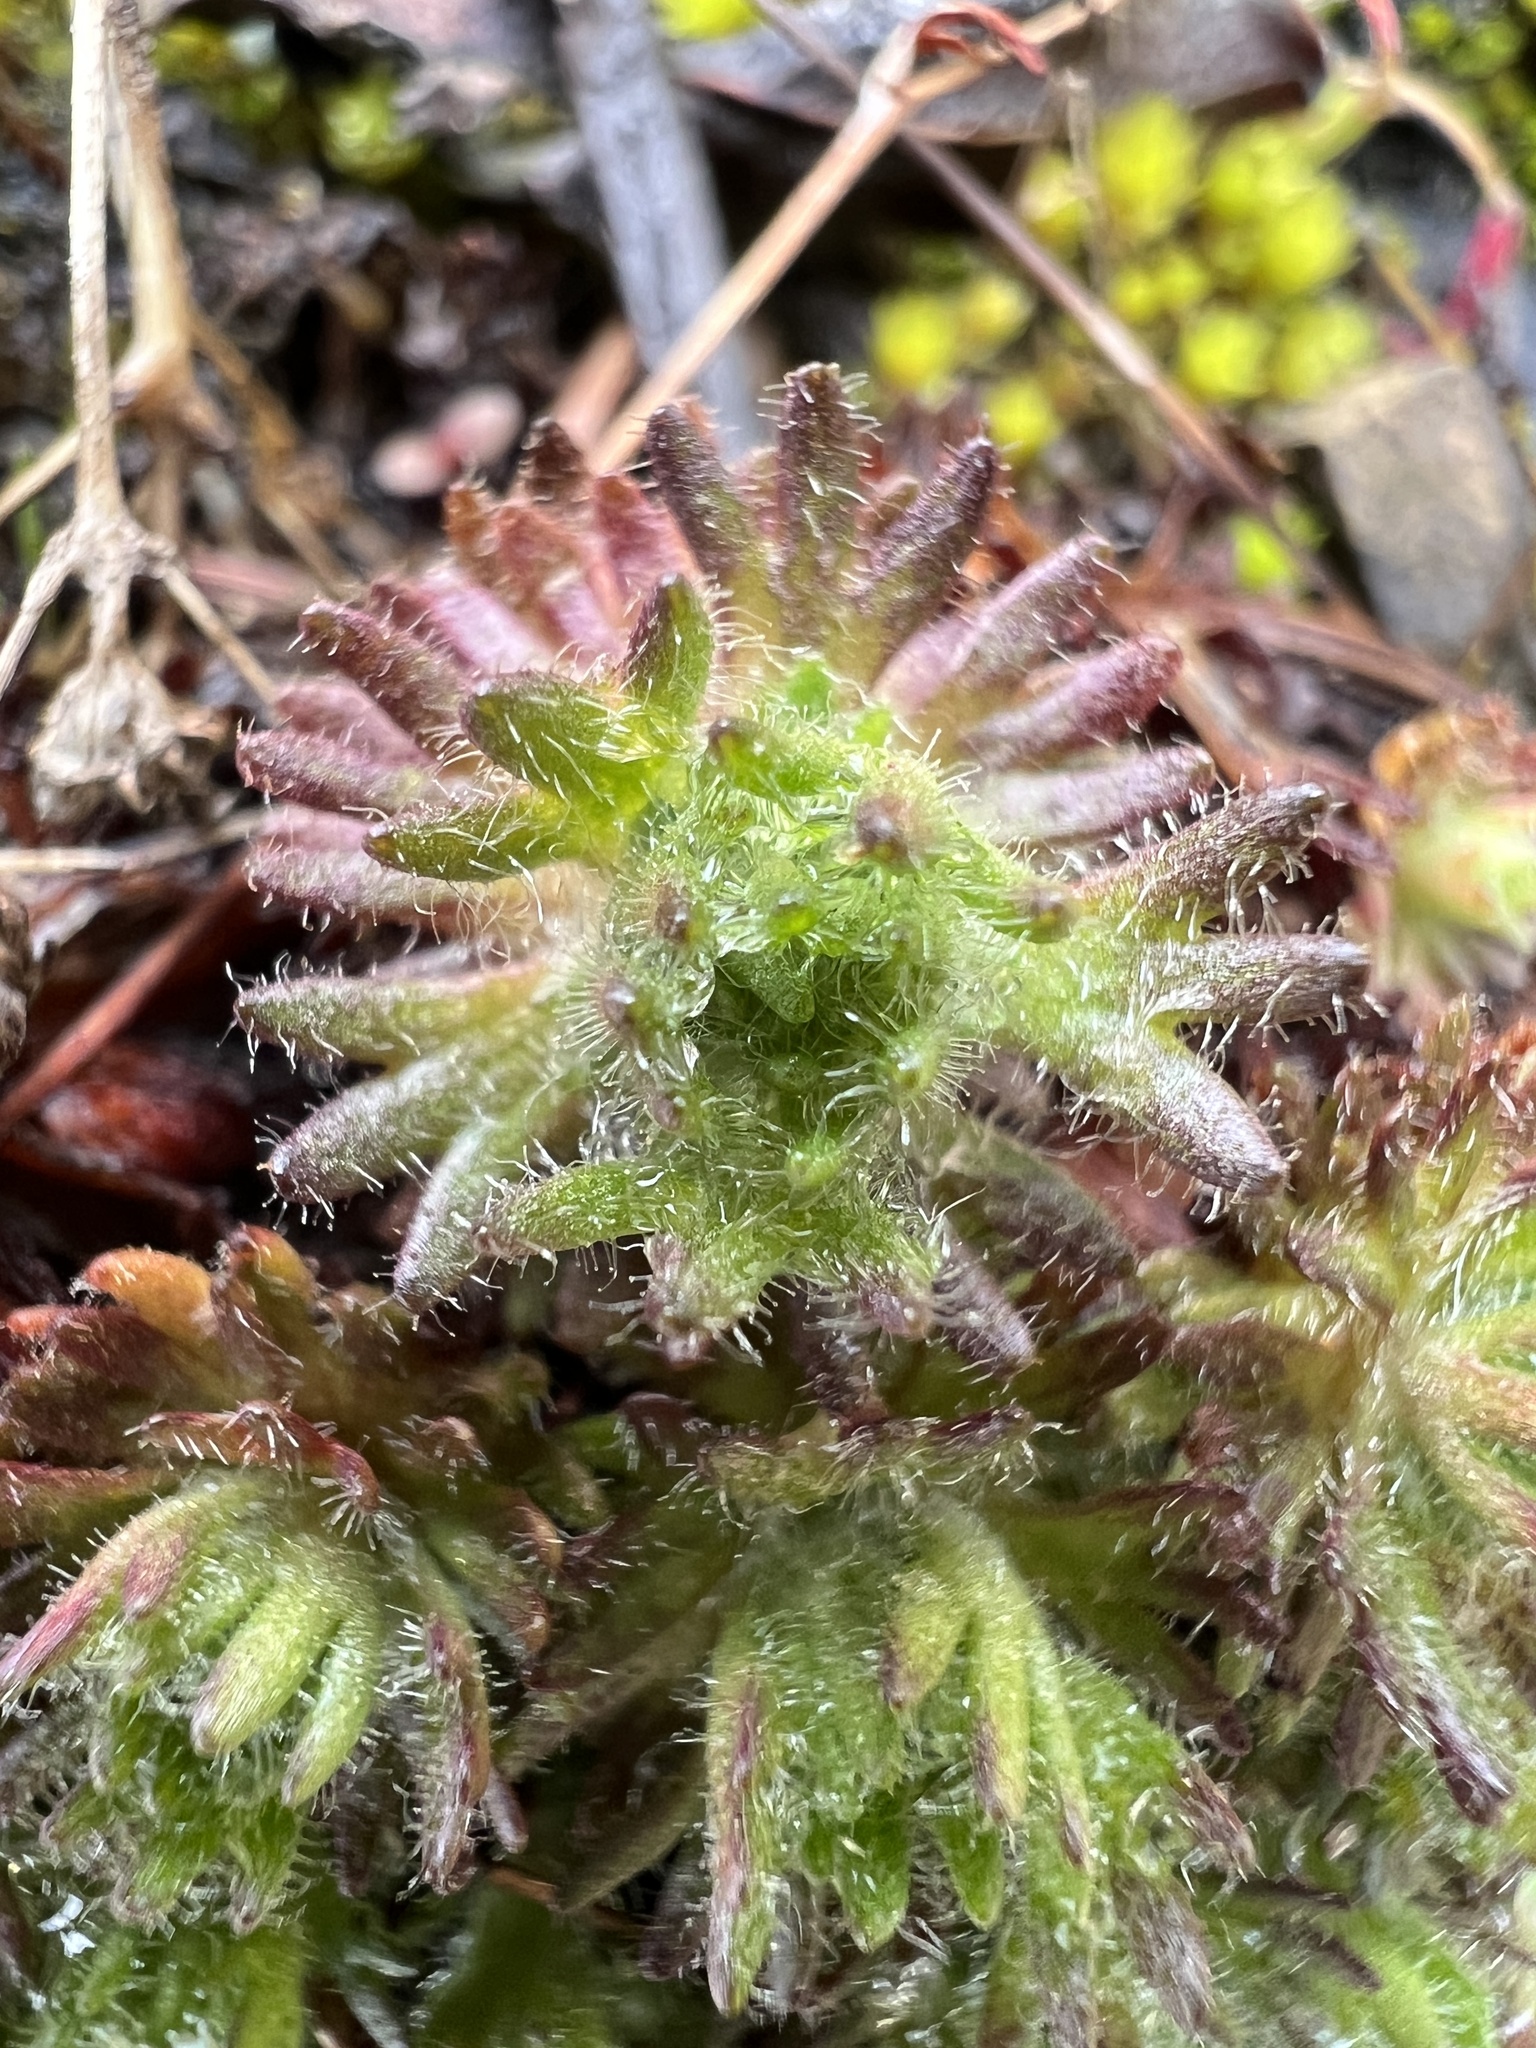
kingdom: Plantae
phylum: Tracheophyta
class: Magnoliopsida
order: Saxifragales
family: Saxifragaceae
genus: Saxifraga
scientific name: Saxifraga cespitosa
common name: Tufted saxifrage
